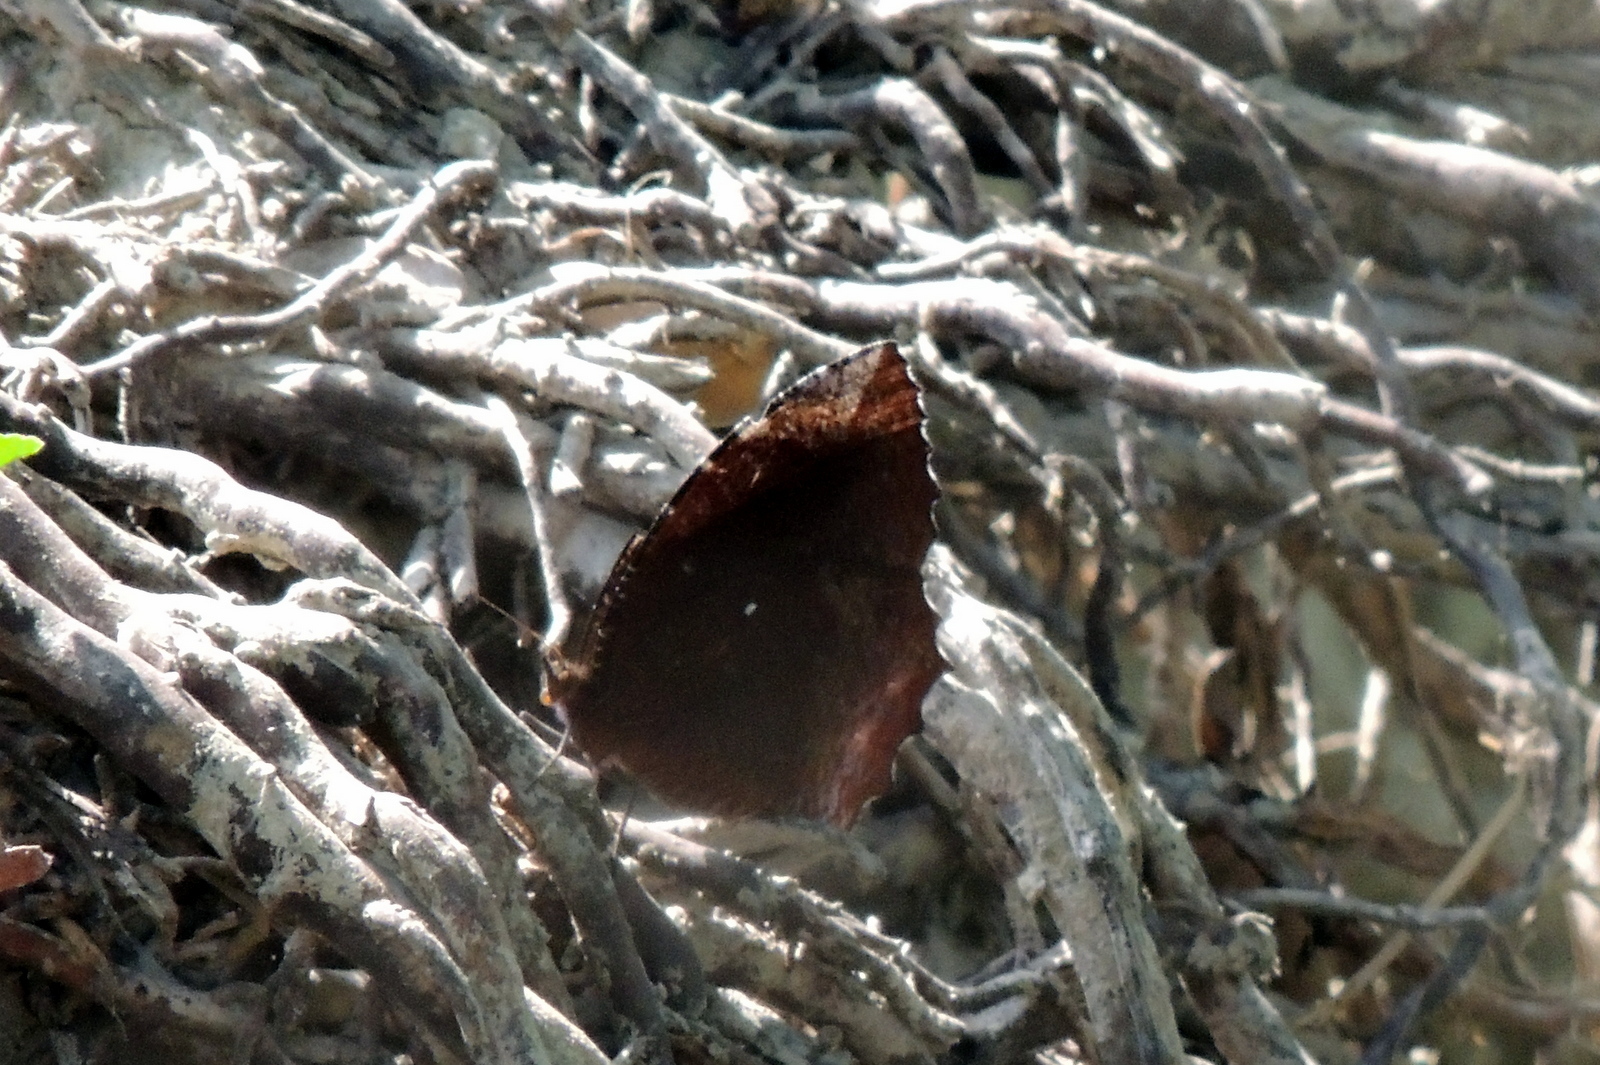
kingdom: Animalia
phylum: Arthropoda
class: Insecta
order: Lepidoptera
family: Nymphalidae
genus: Elymnias
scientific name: Elymnias hypermnestra
